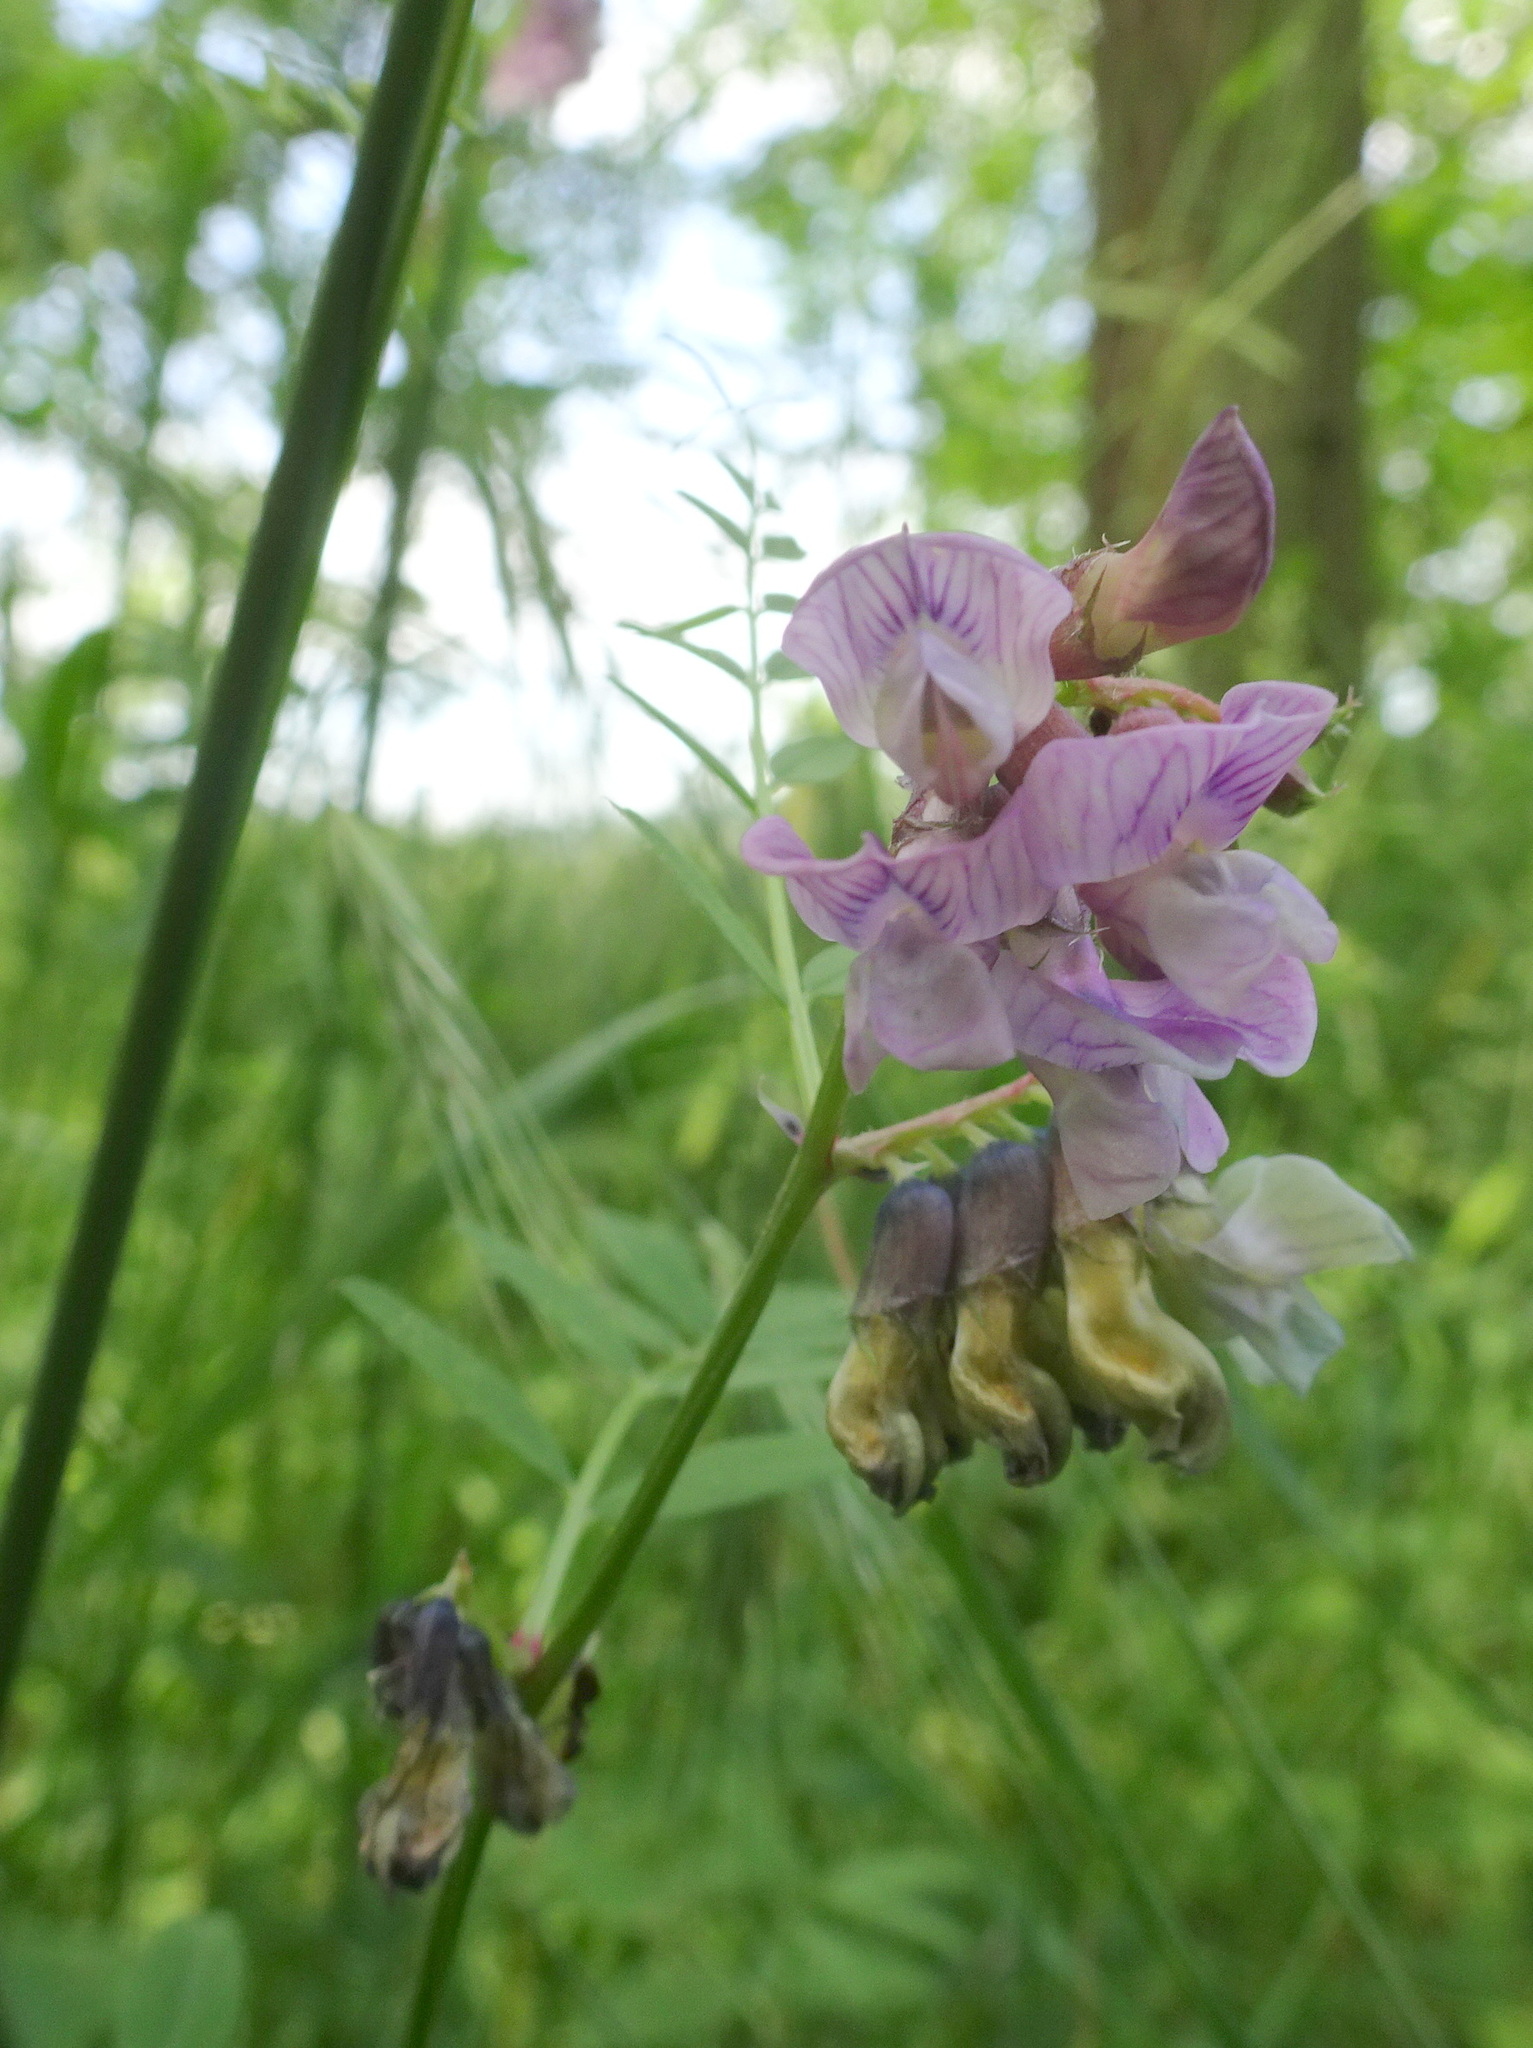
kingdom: Plantae
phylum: Tracheophyta
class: Magnoliopsida
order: Fabales
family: Fabaceae
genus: Vicia
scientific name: Vicia sepium
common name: Bush vetch
